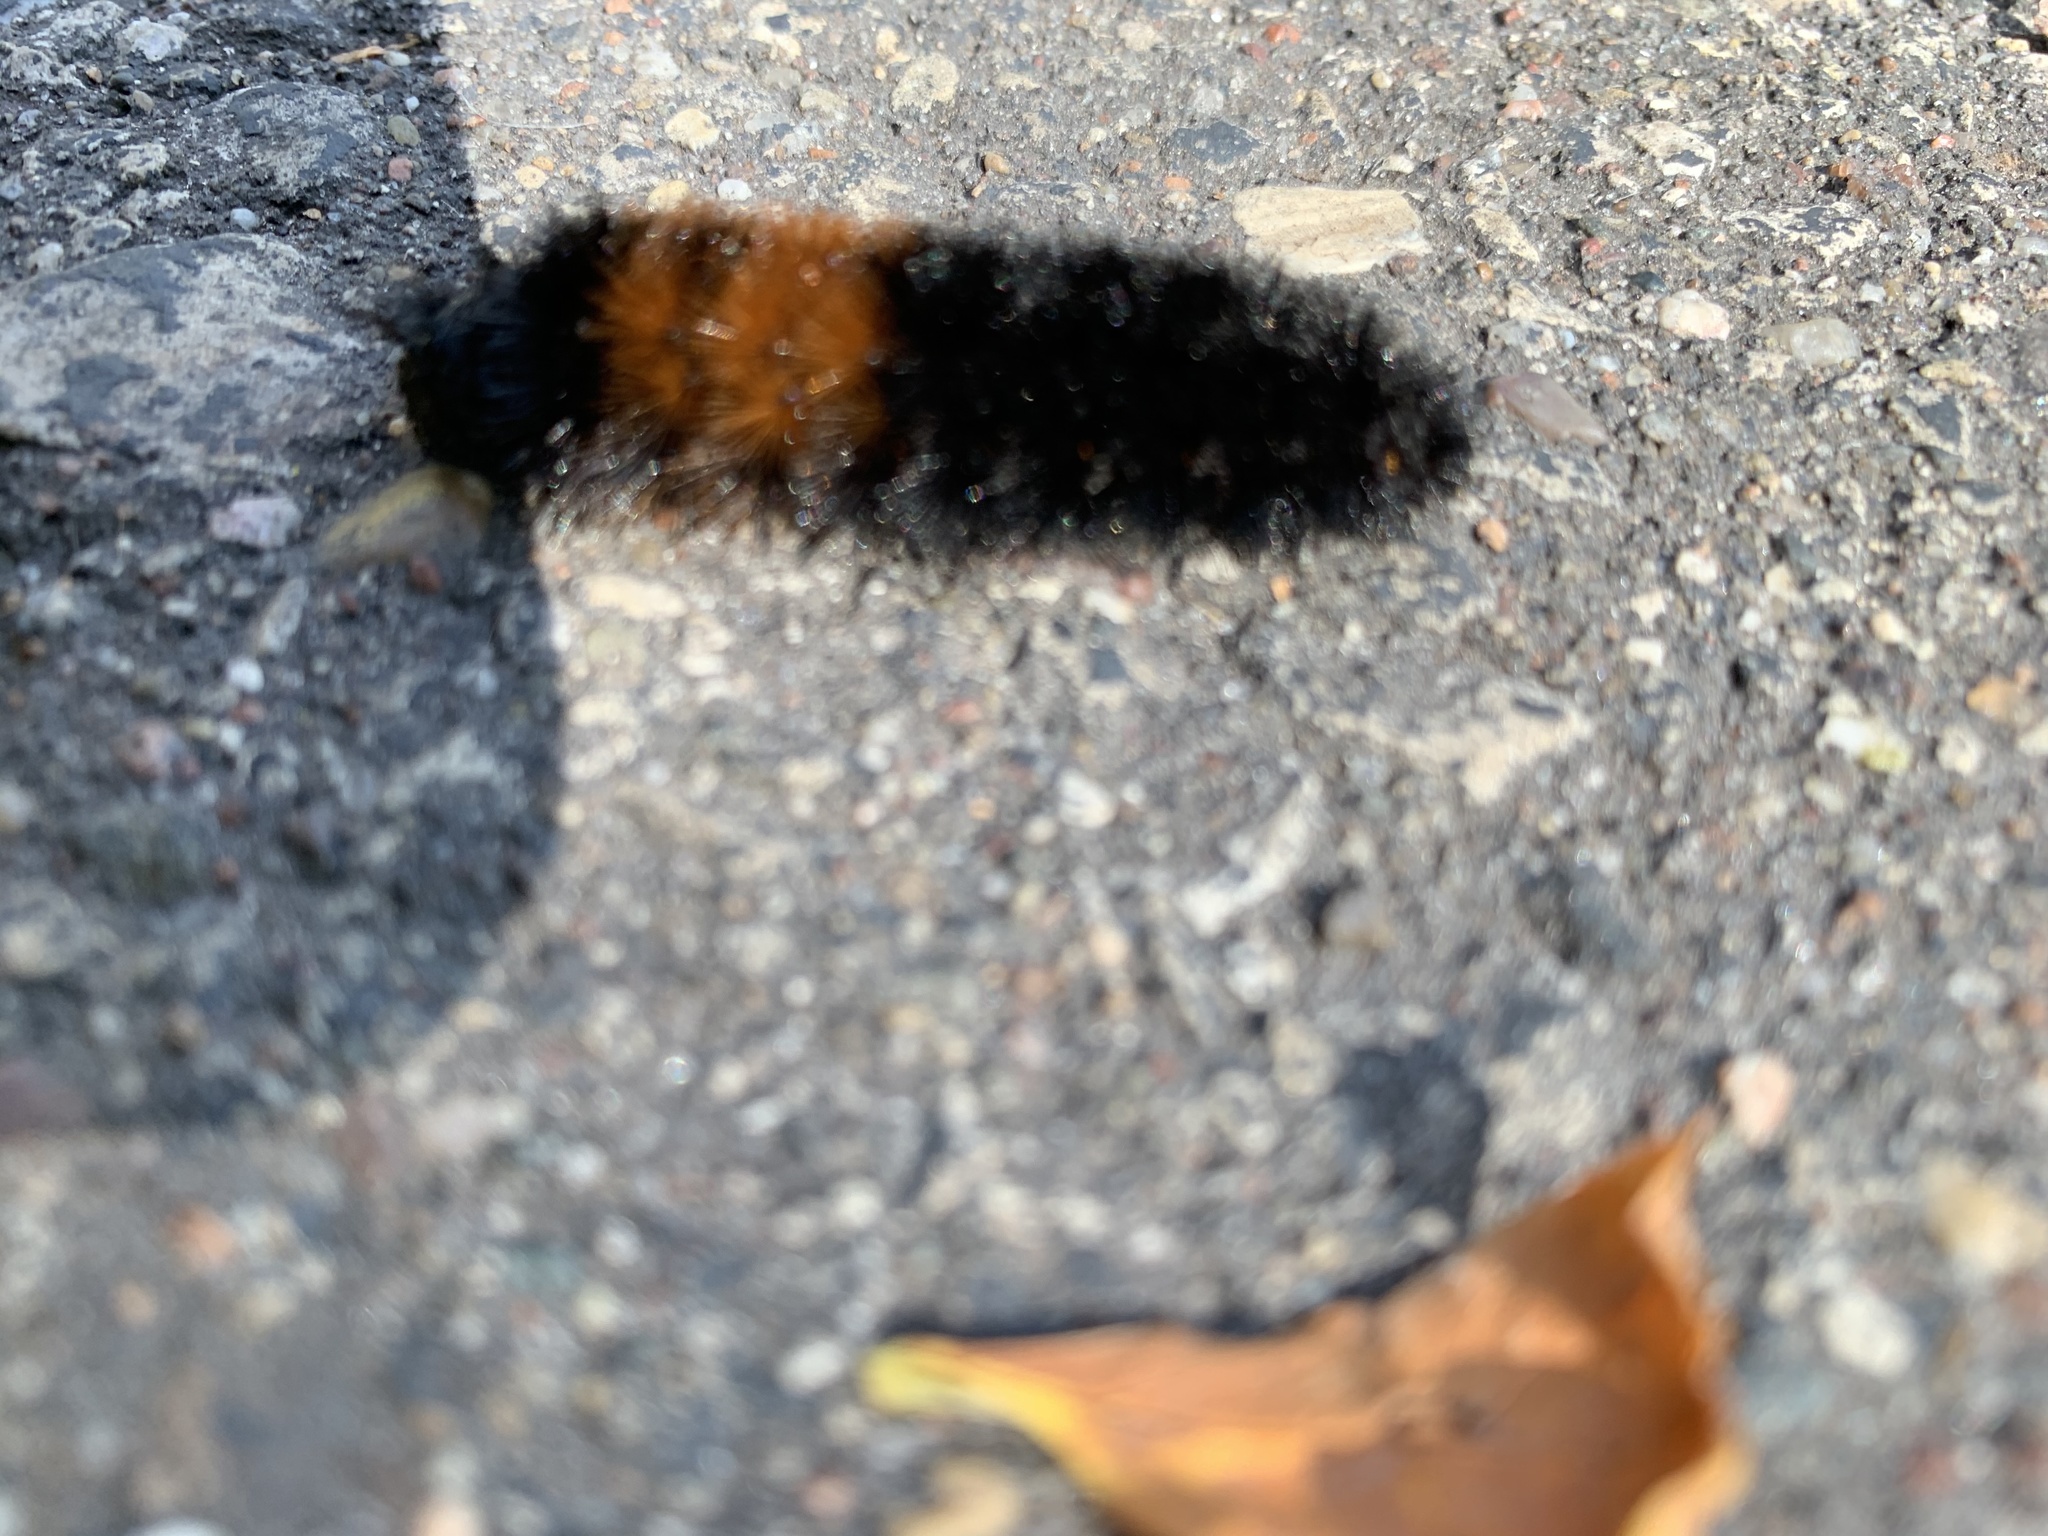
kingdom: Animalia
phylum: Arthropoda
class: Insecta
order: Lepidoptera
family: Erebidae
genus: Pyrrharctia
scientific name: Pyrrharctia isabella
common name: Isabella tiger moth
